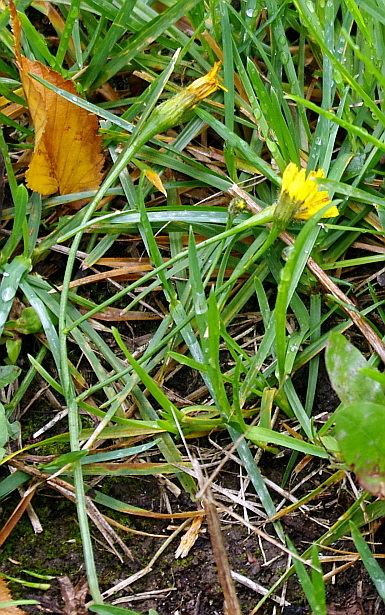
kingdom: Plantae
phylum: Tracheophyta
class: Magnoliopsida
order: Asterales
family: Asteraceae
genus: Scorzoneroides
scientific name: Scorzoneroides autumnalis
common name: Autumn hawkbit
